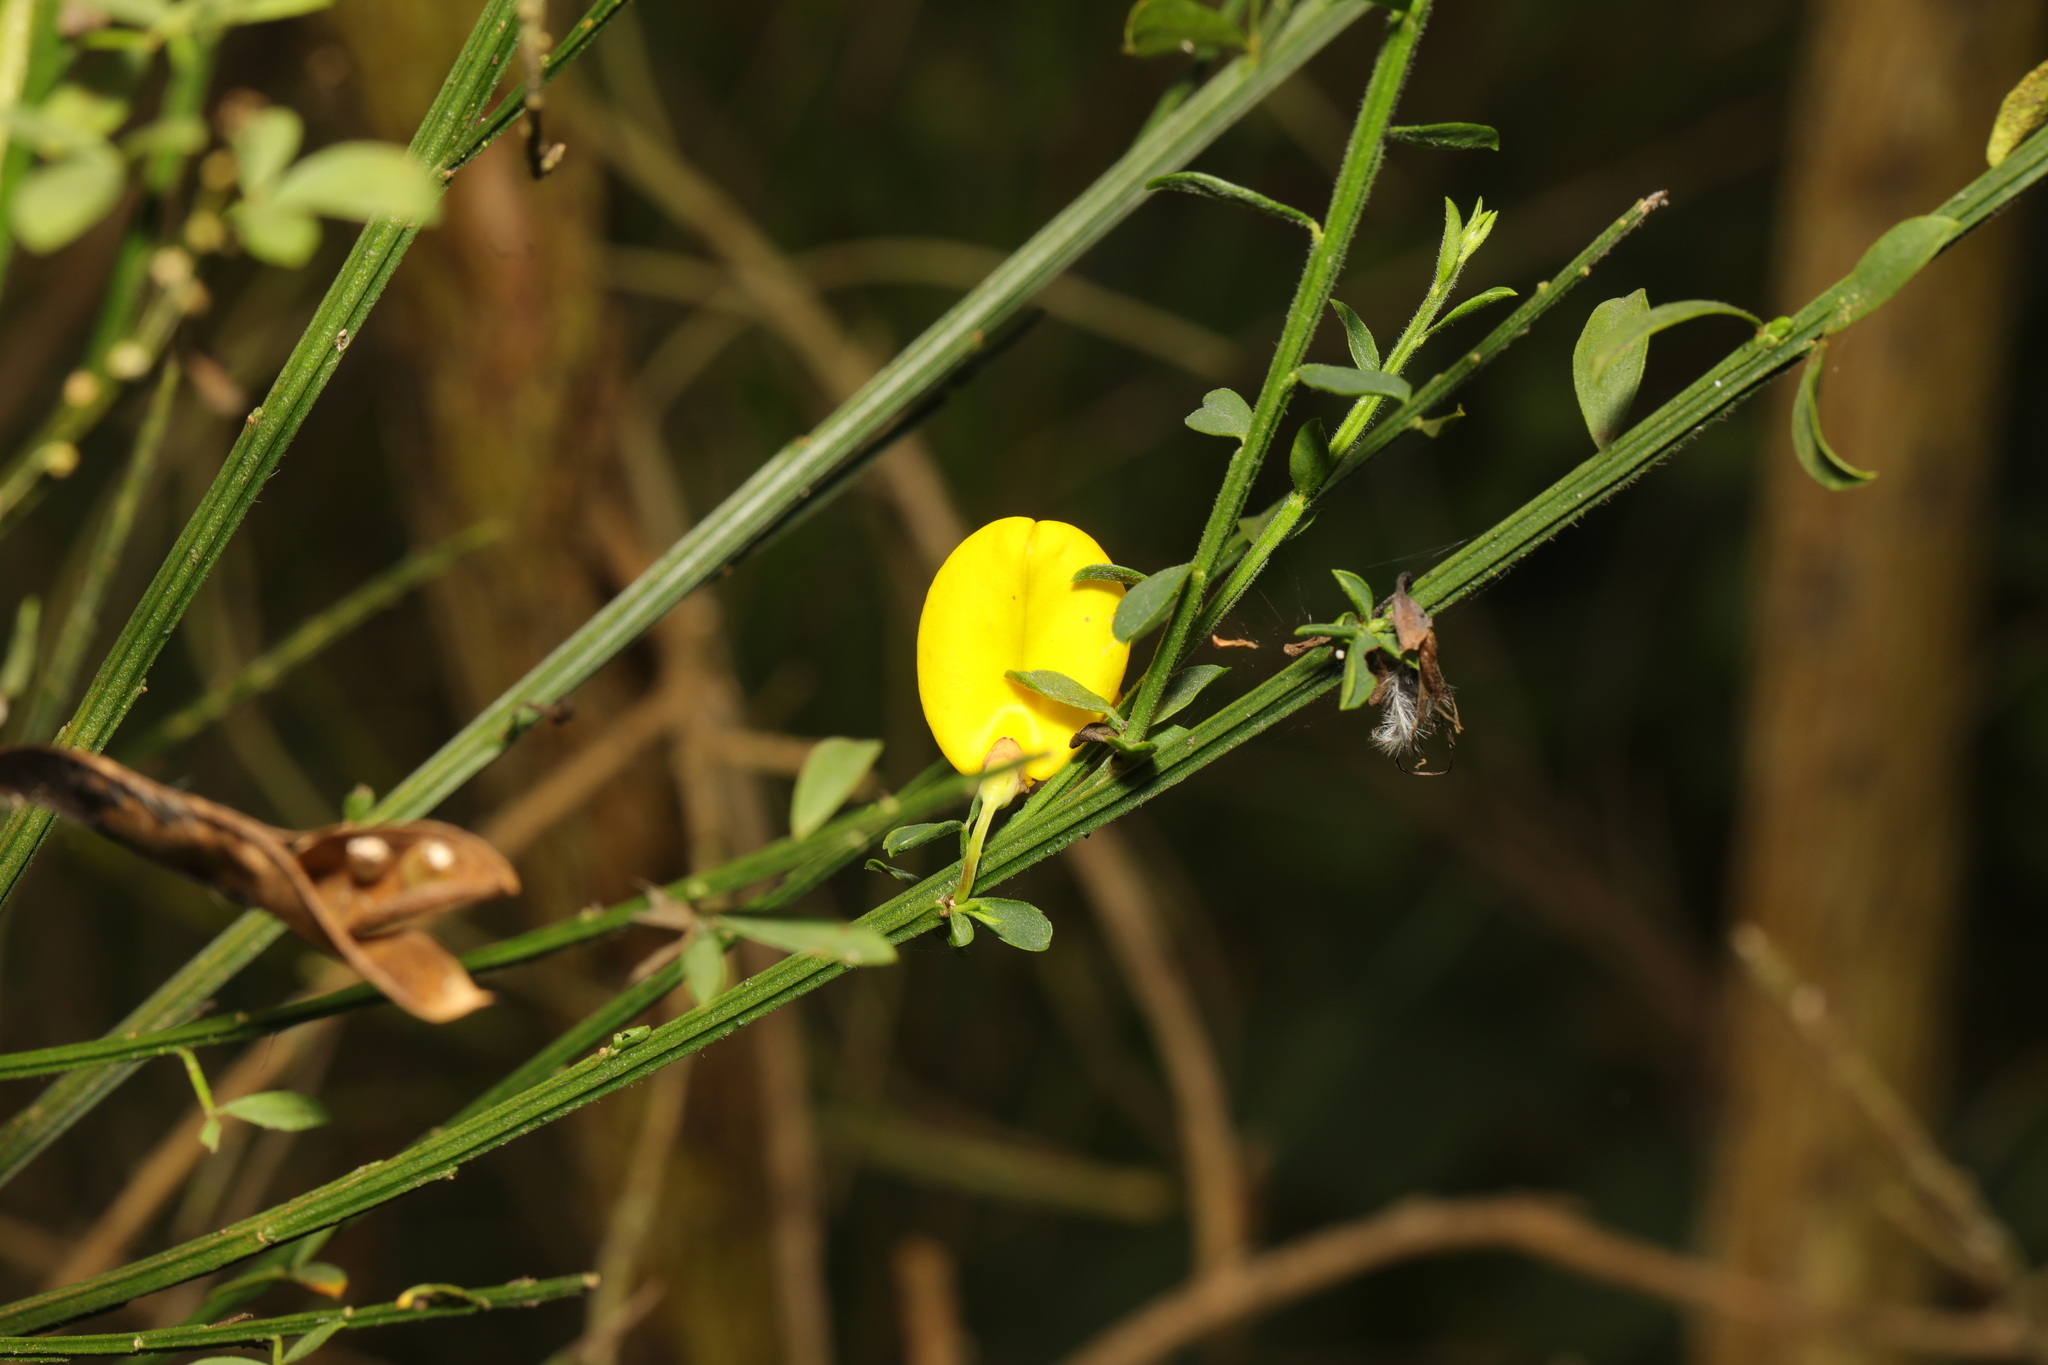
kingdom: Plantae
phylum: Tracheophyta
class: Magnoliopsida
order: Fabales
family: Fabaceae
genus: Cytisus
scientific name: Cytisus scoparius
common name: Scotch broom
